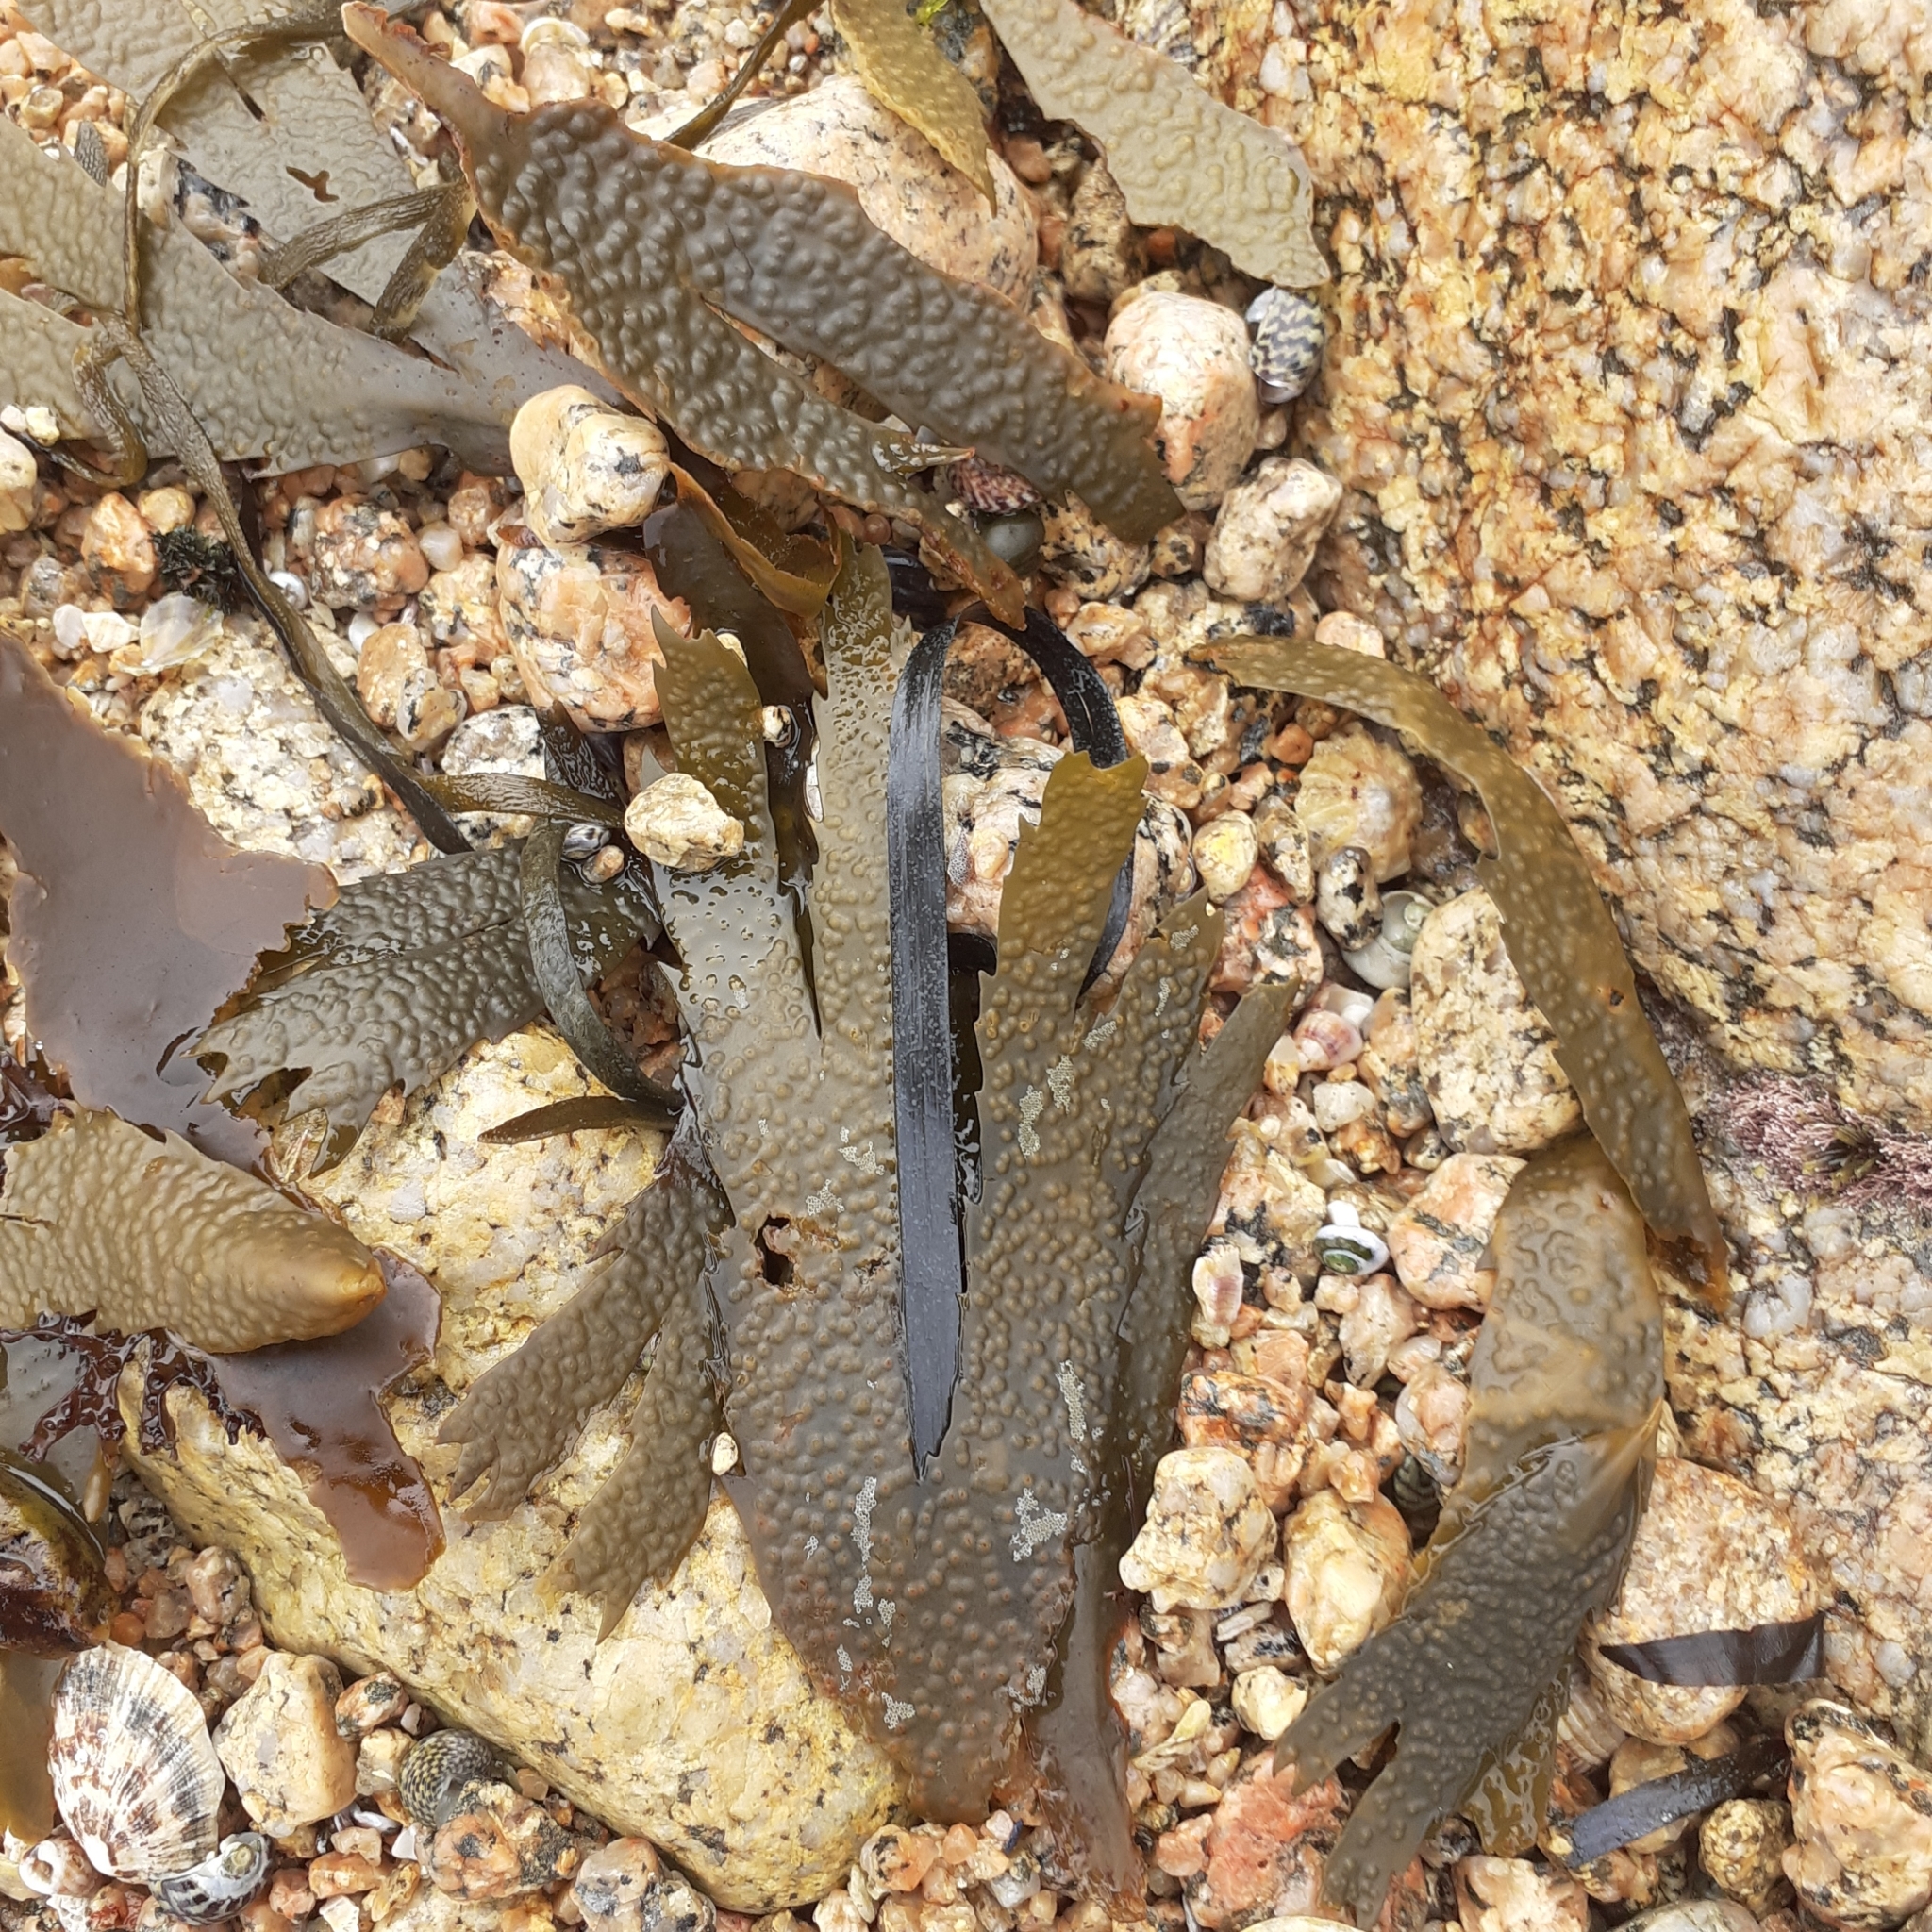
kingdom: Chromista
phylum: Ochrophyta
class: Phaeophyceae
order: Fucales
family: Fucaceae
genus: Fucus
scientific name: Fucus serratus
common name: Toothed wrack
